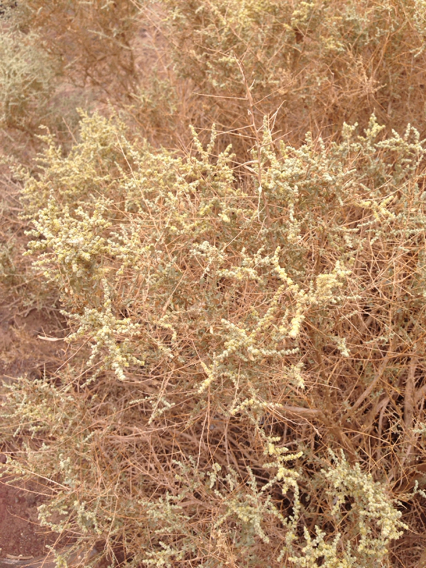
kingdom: Plantae
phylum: Tracheophyta
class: Magnoliopsida
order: Caryophyllales
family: Amaranthaceae
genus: Atriplex
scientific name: Atriplex polycarpa
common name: Desert saltbush
